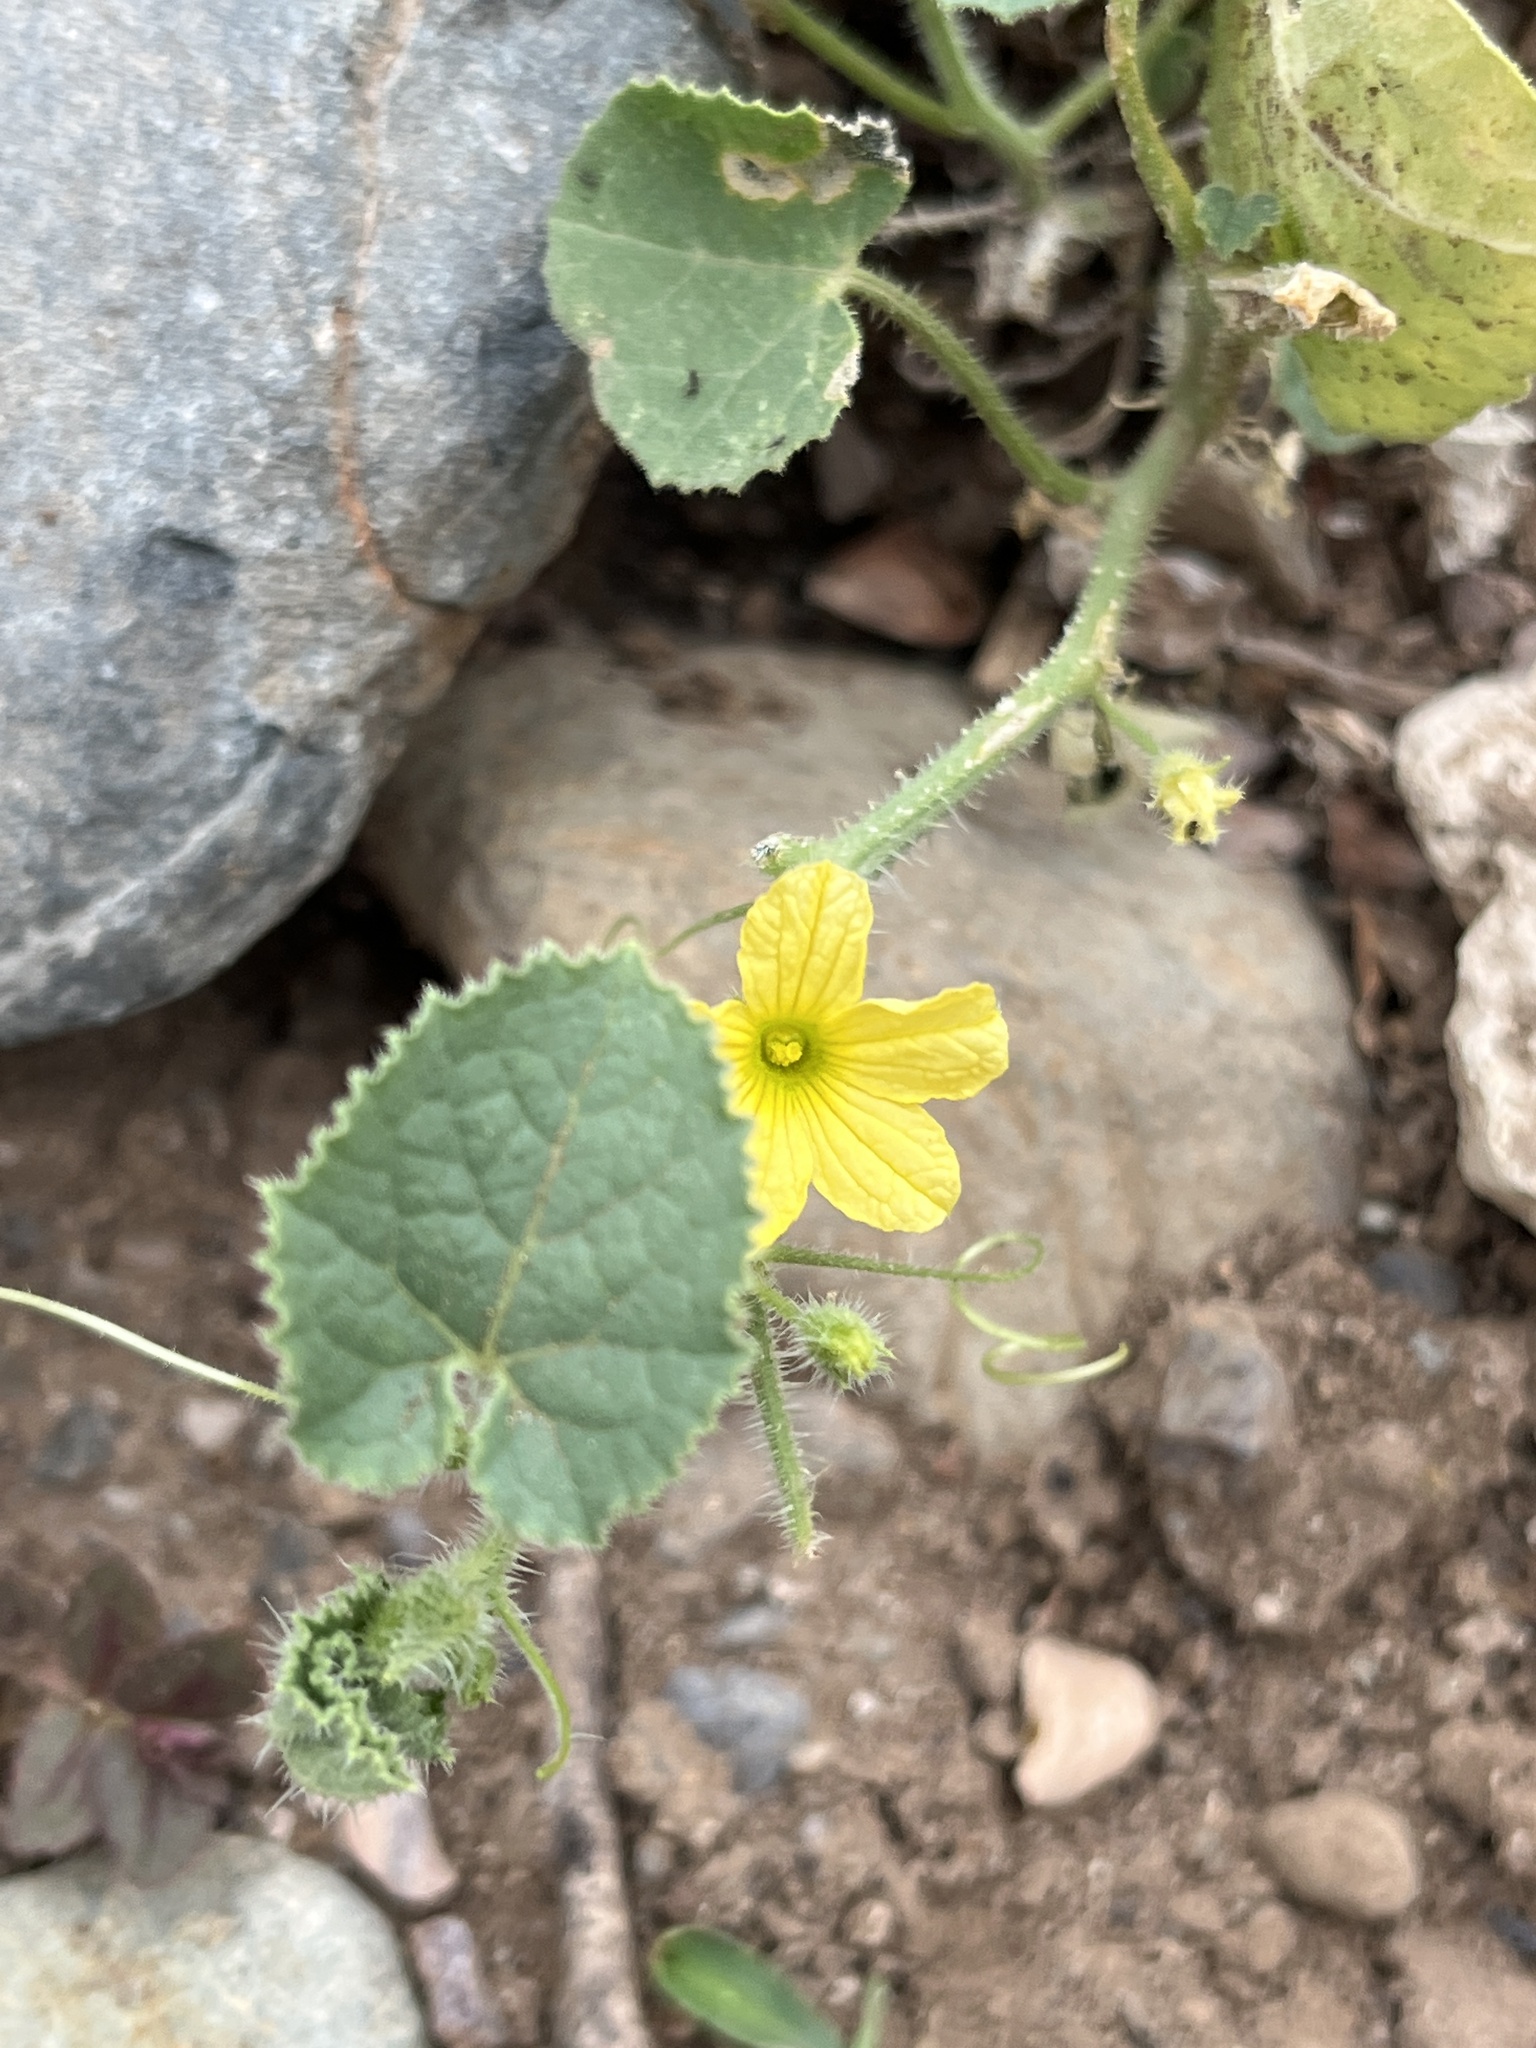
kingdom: Plantae
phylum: Tracheophyta
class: Magnoliopsida
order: Cucurbitales
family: Cucurbitaceae
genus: Cucumis
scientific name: Cucumis dipsaceus
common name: Hedgehog gourd
